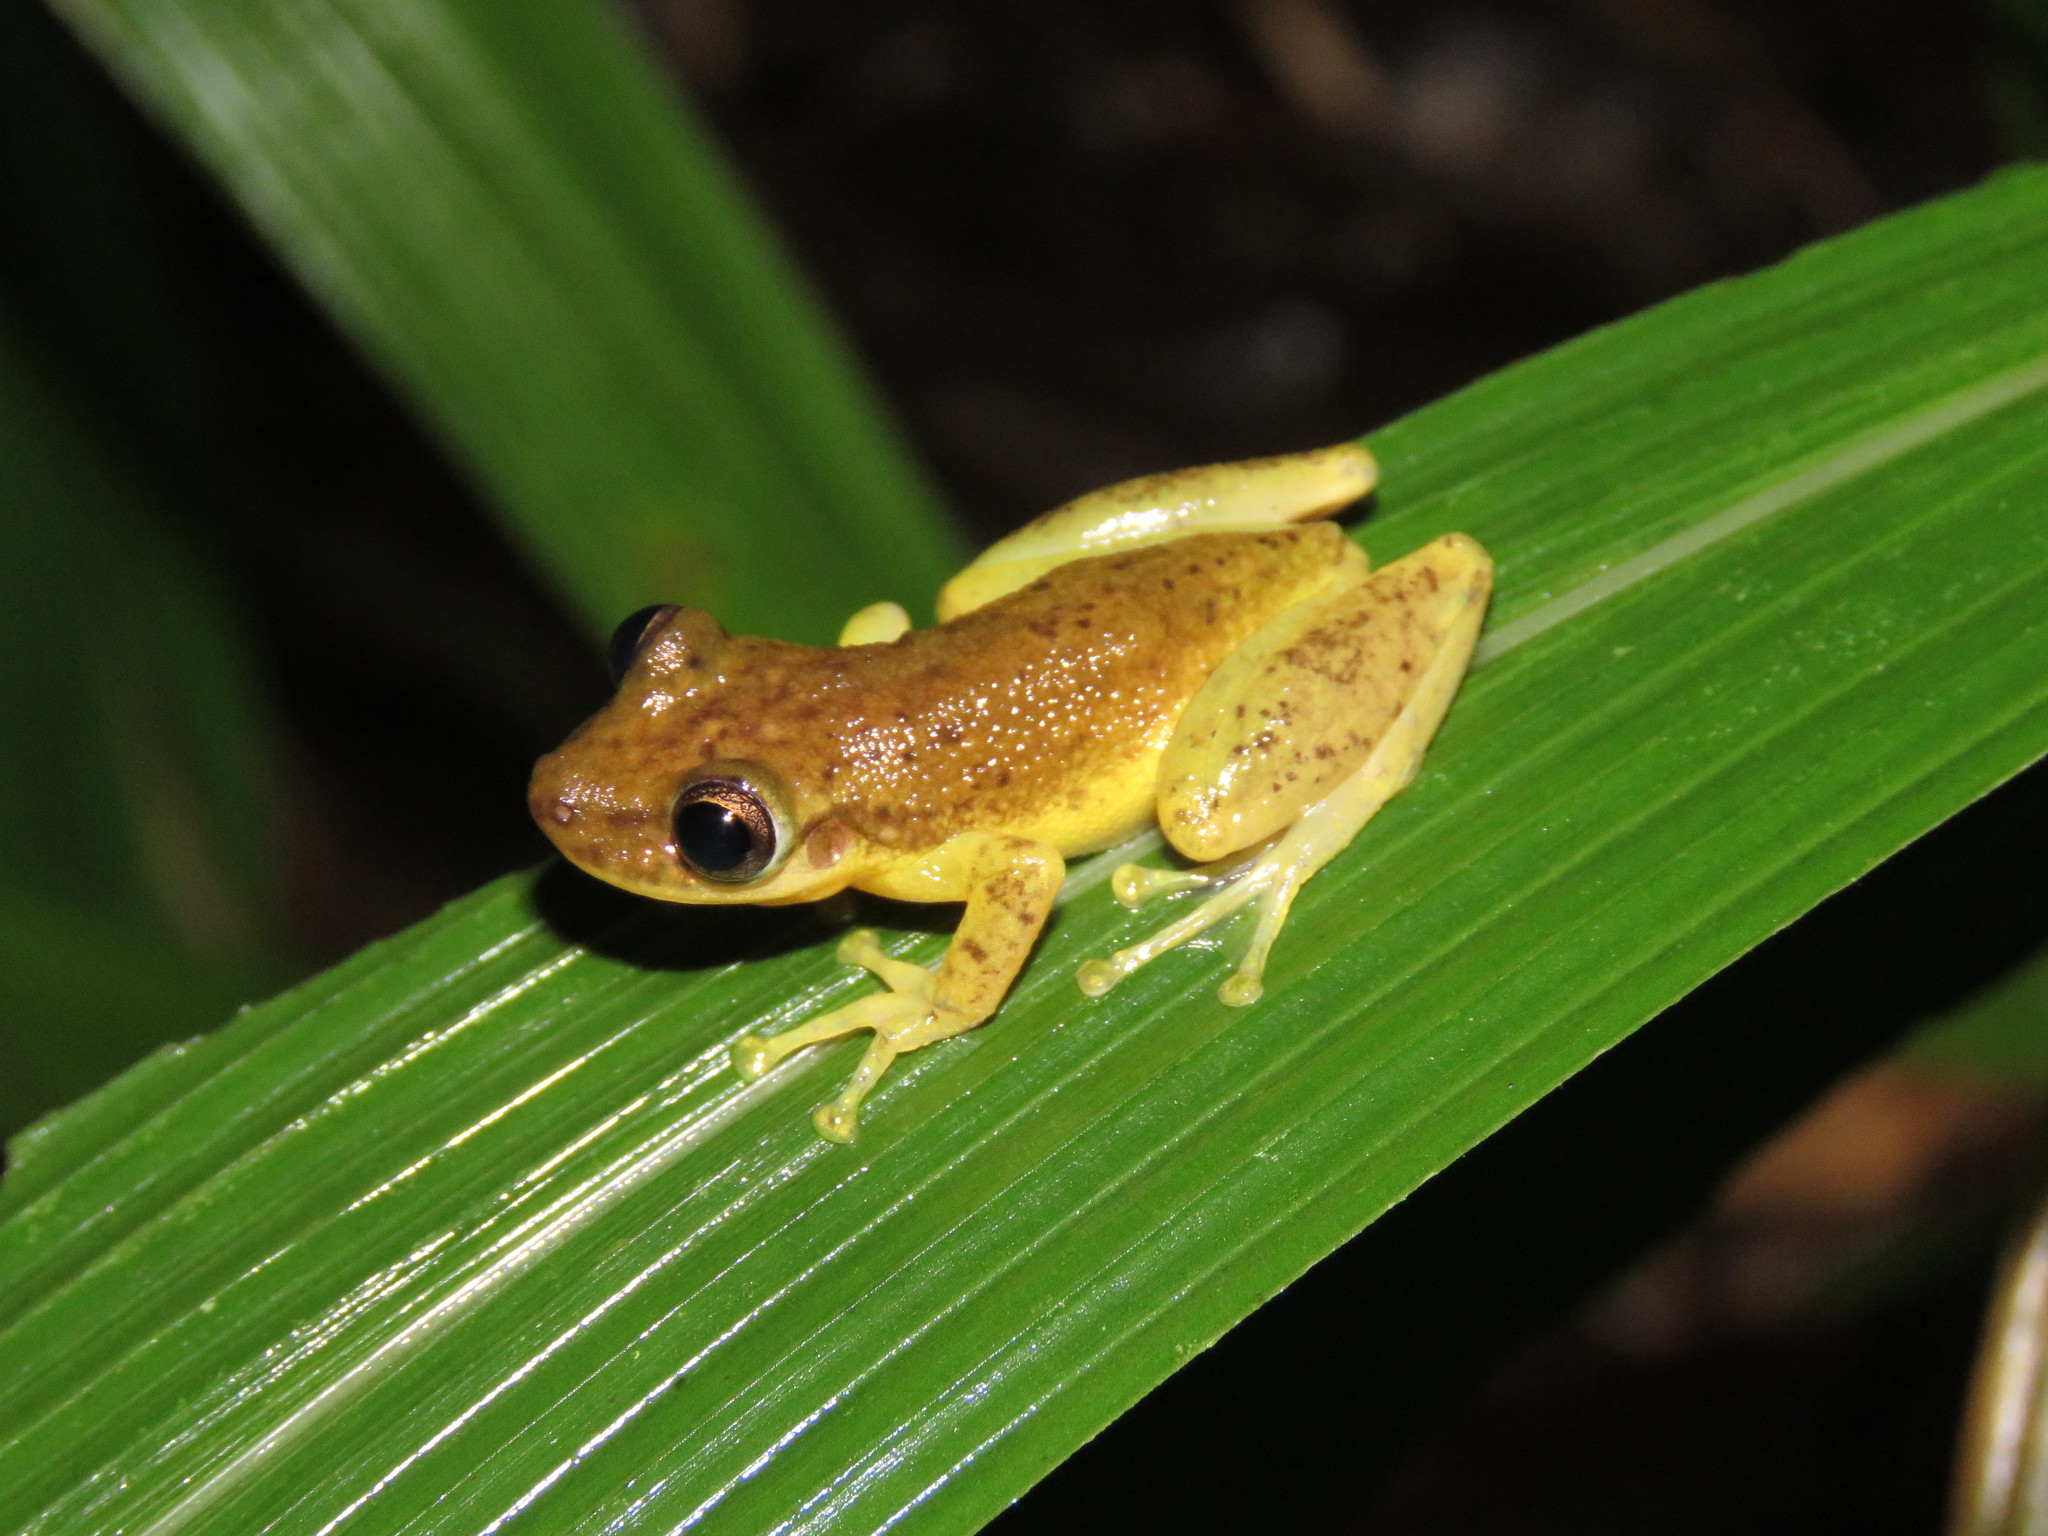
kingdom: Animalia
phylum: Chordata
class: Amphibia
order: Anura
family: Hylidae
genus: Scinax
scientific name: Scinax ruber
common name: Red snouted treefrog
